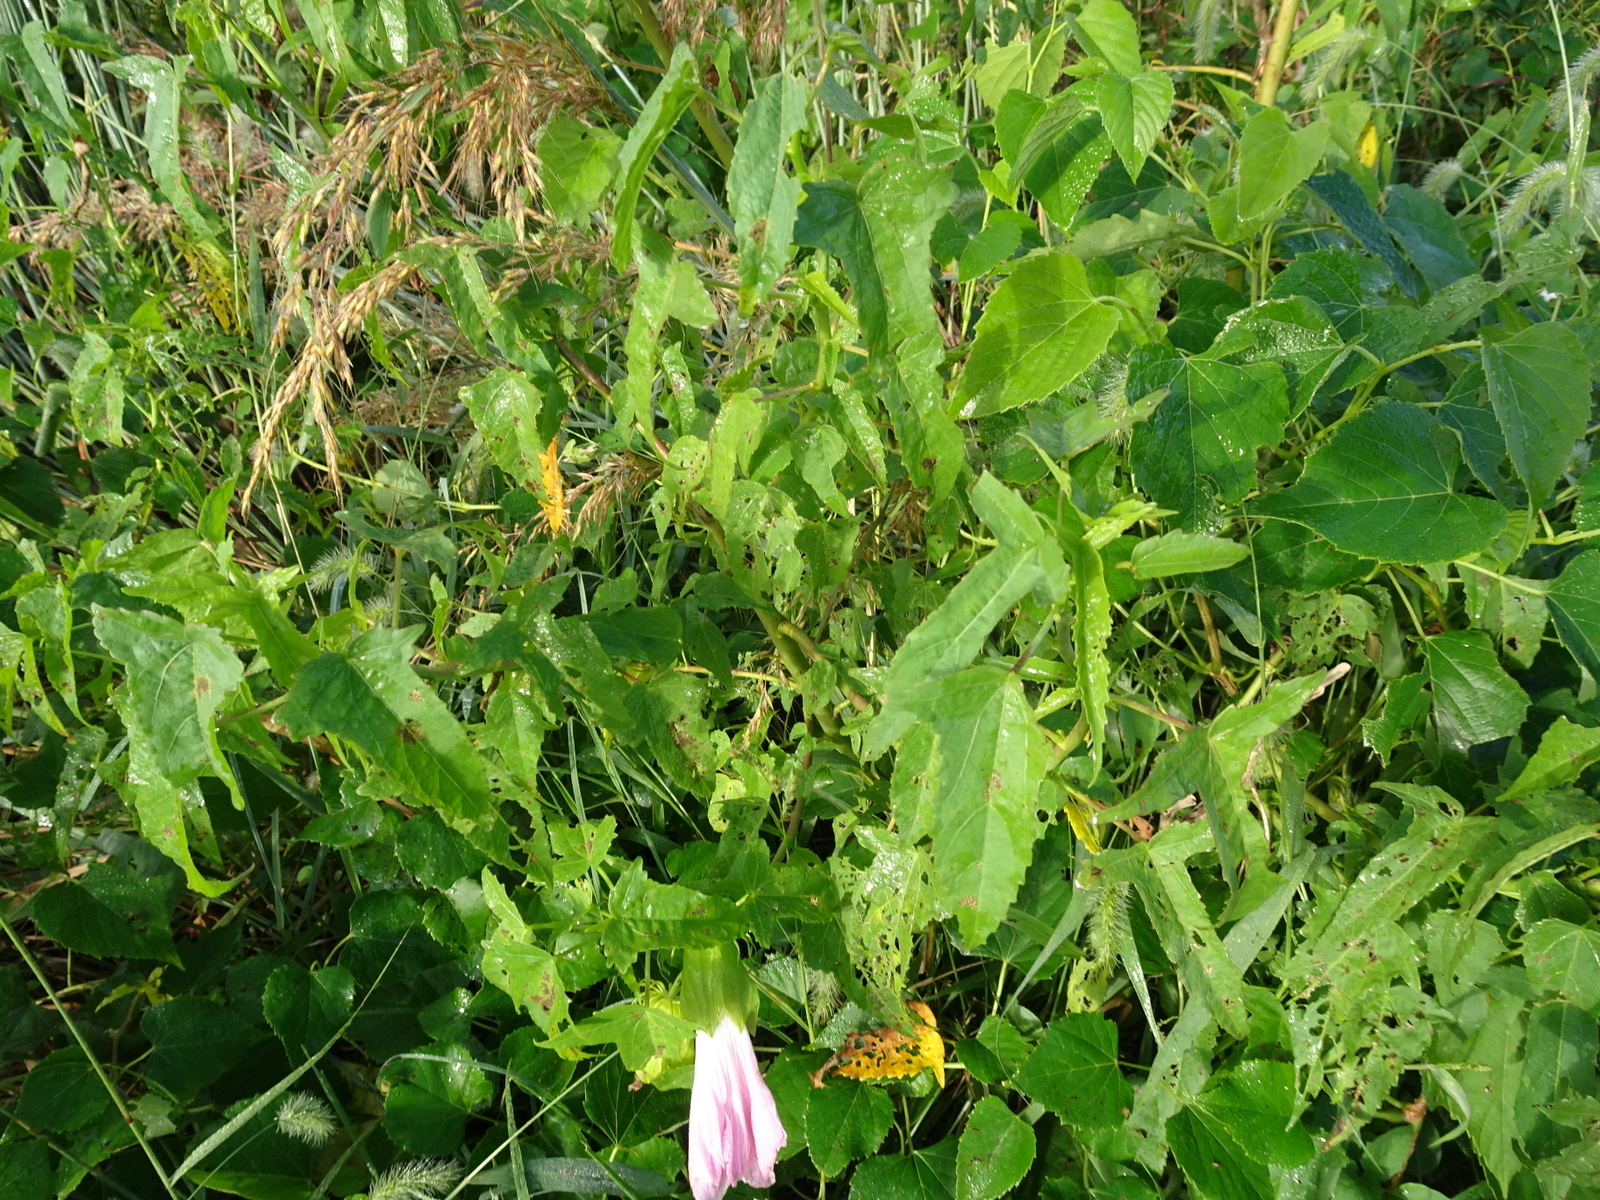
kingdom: Plantae
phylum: Tracheophyta
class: Magnoliopsida
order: Malvales
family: Malvaceae
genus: Hibiscus
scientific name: Hibiscus laevis
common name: Scarlet rose-mallow
